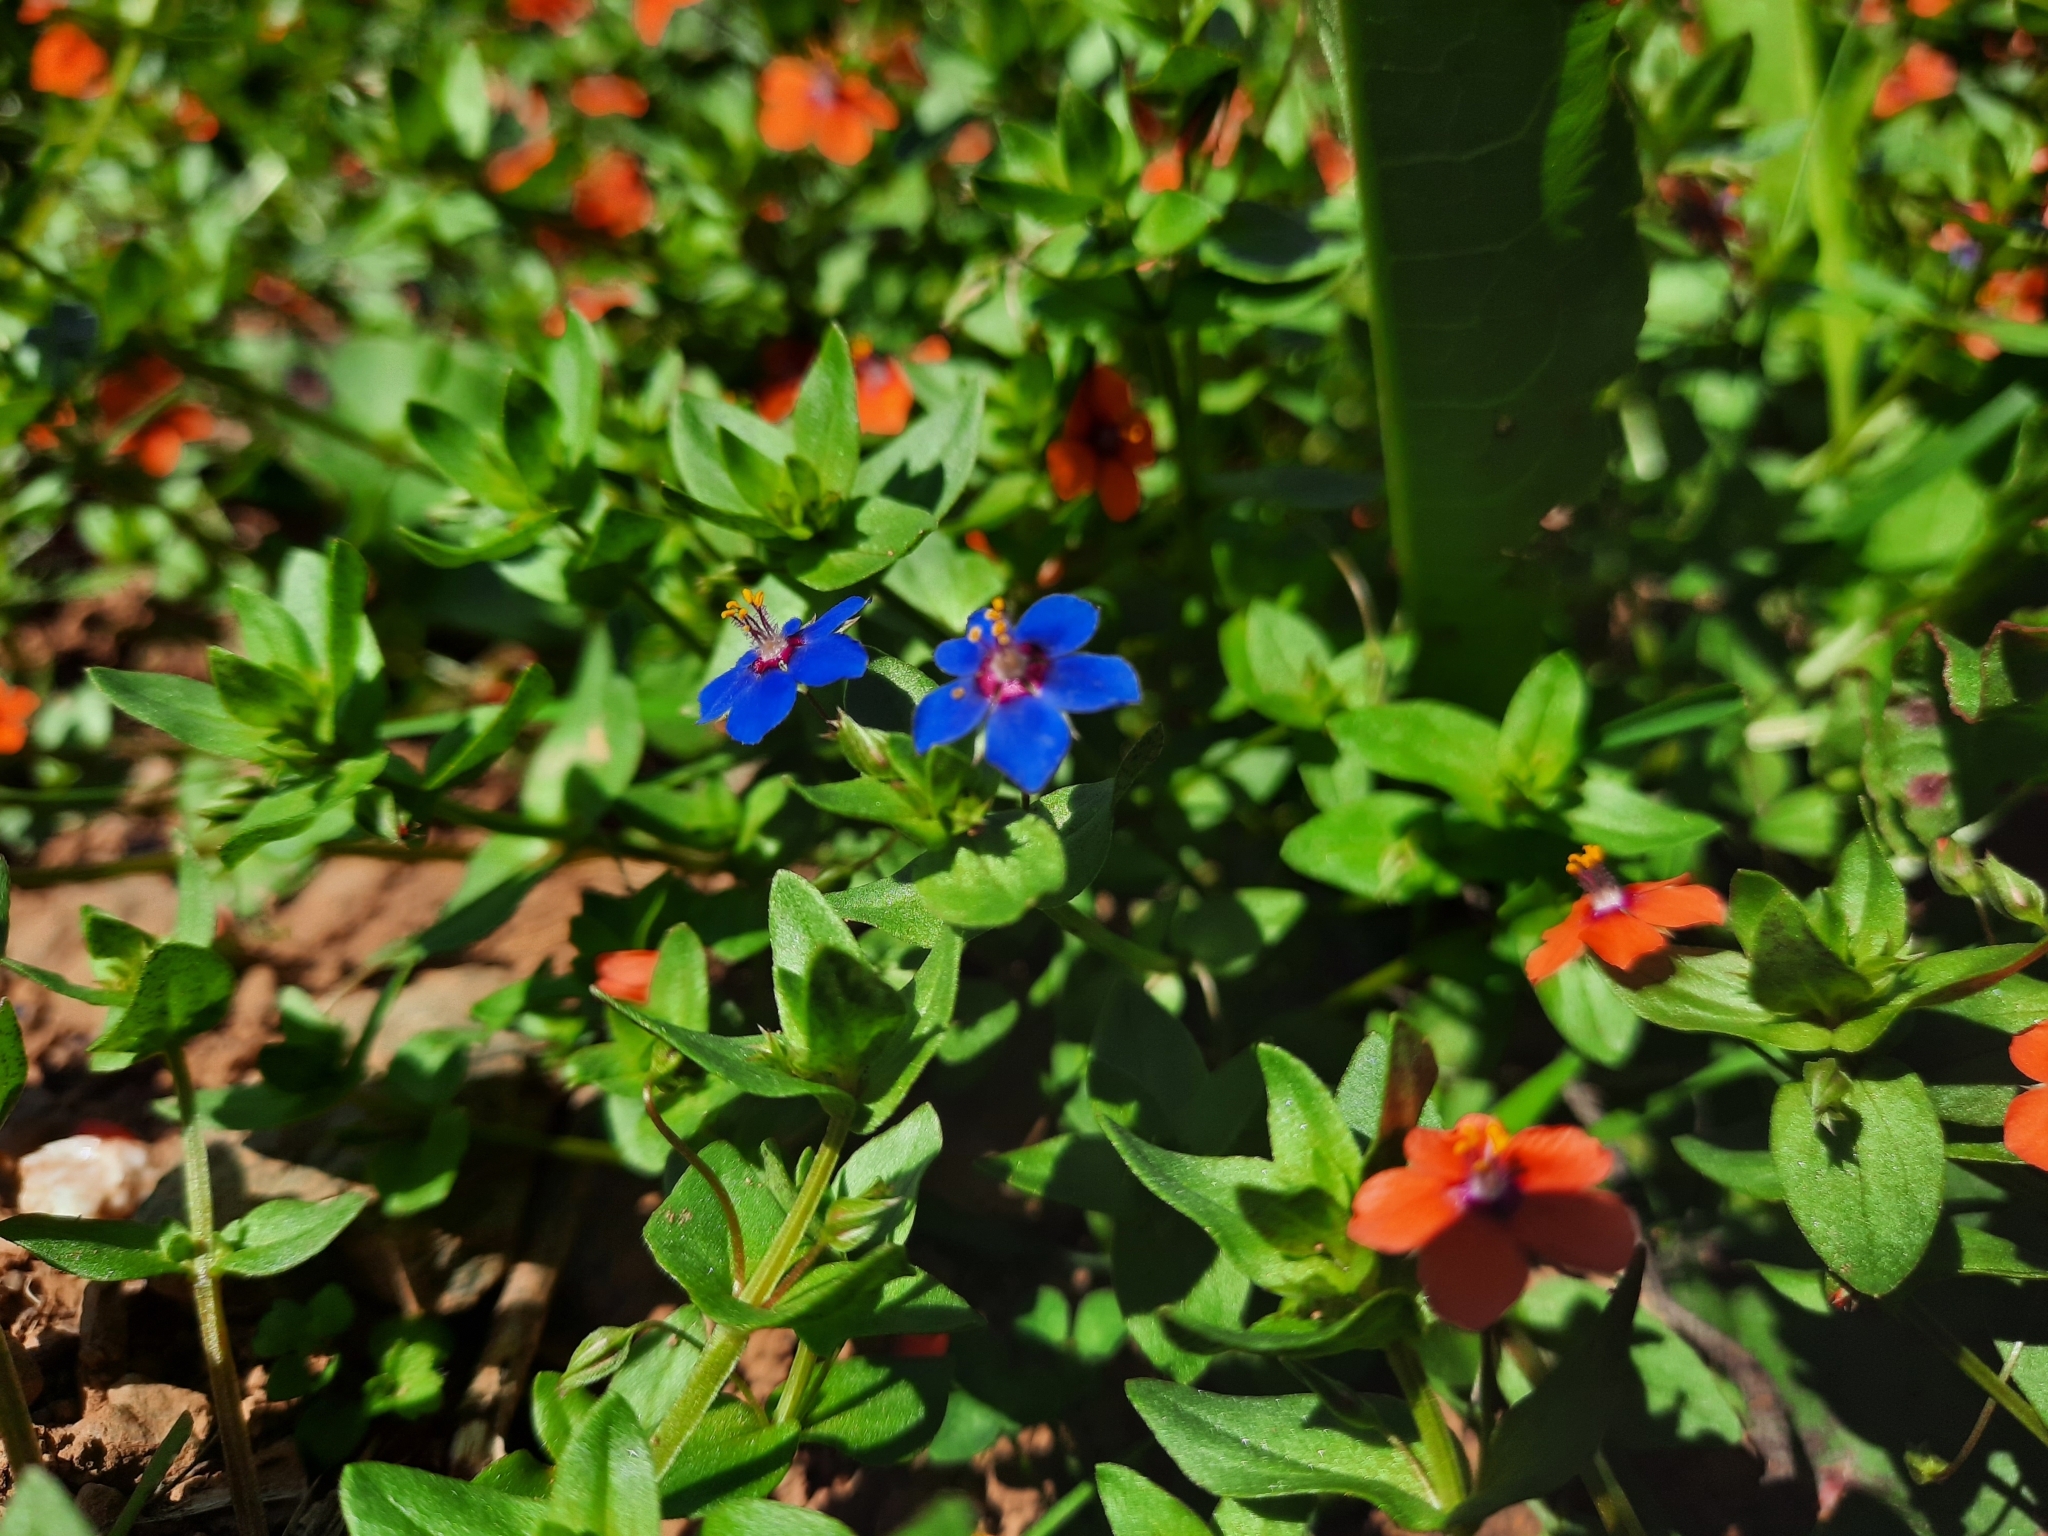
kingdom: Plantae
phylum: Tracheophyta
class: Magnoliopsida
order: Ericales
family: Primulaceae
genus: Lysimachia
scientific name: Lysimachia foemina
